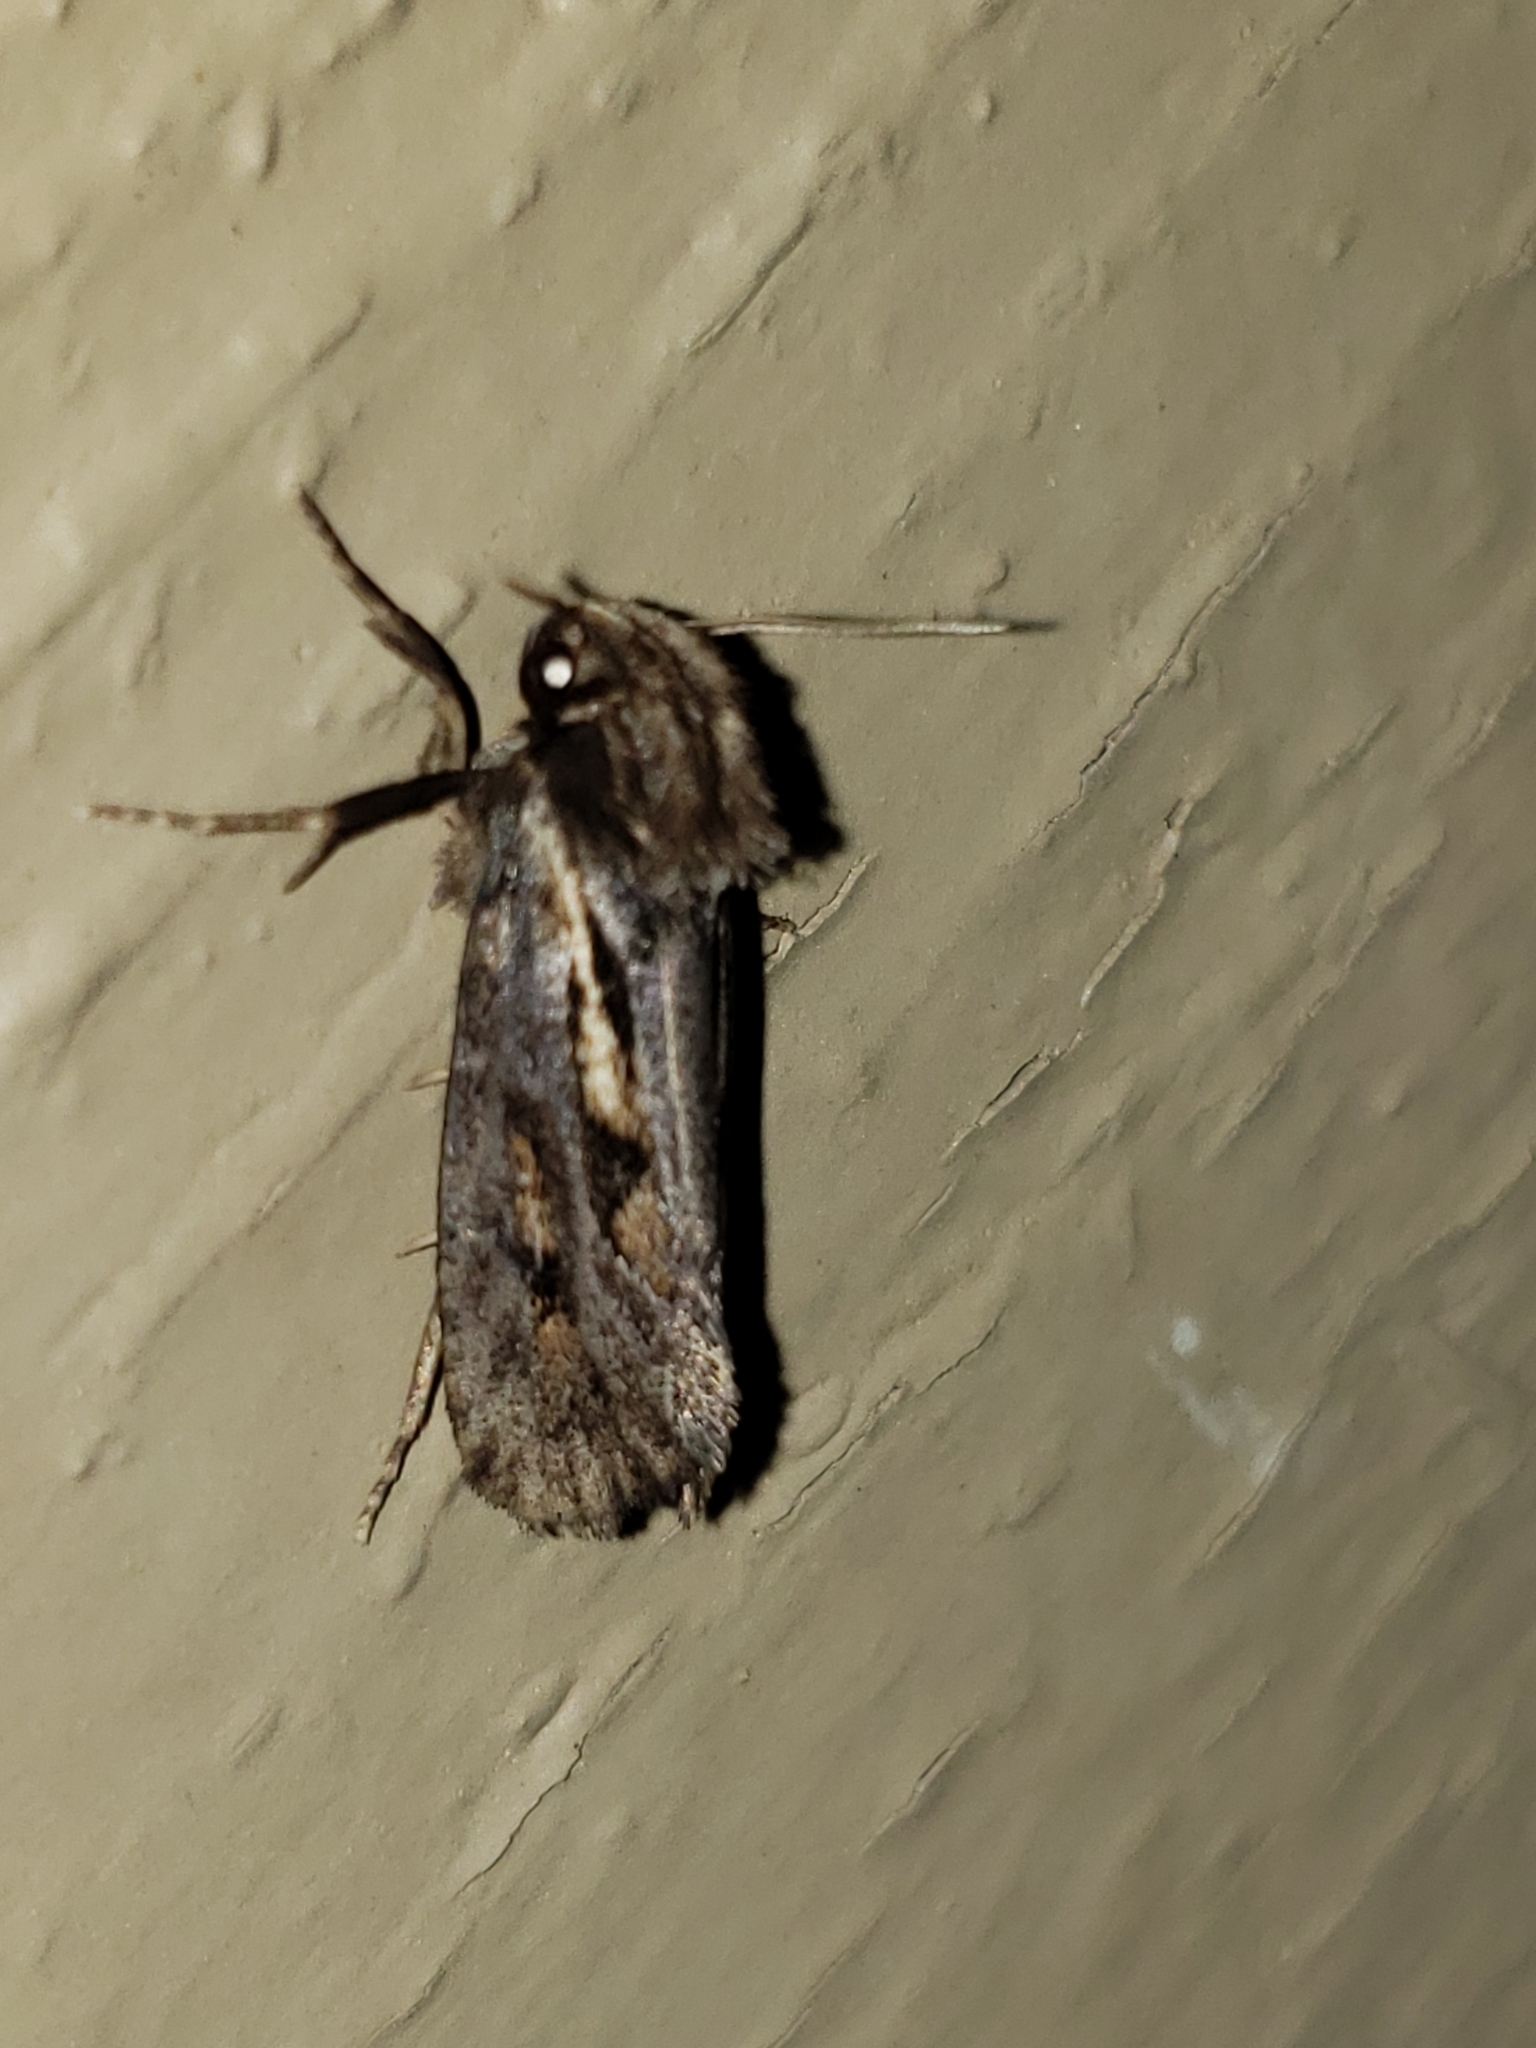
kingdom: Animalia
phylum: Arthropoda
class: Insecta
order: Lepidoptera
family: Tineidae
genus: Acrolophus
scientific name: Acrolophus popeanella
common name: Clemens' grass tubeworm moth
